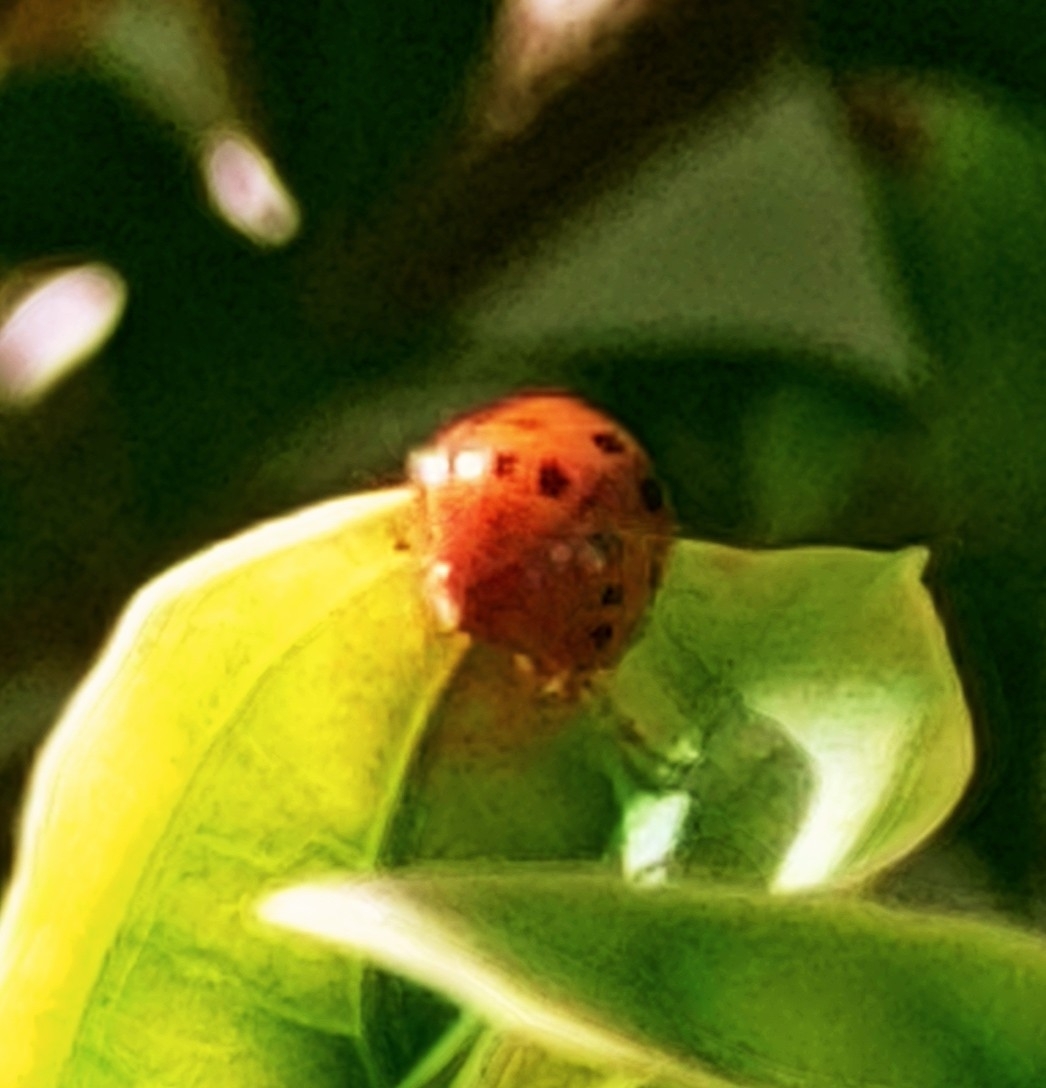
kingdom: Animalia
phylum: Arthropoda
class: Insecta
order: Coleoptera
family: Coccinellidae
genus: Harmonia
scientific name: Harmonia axyridis
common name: Harlequin ladybird
